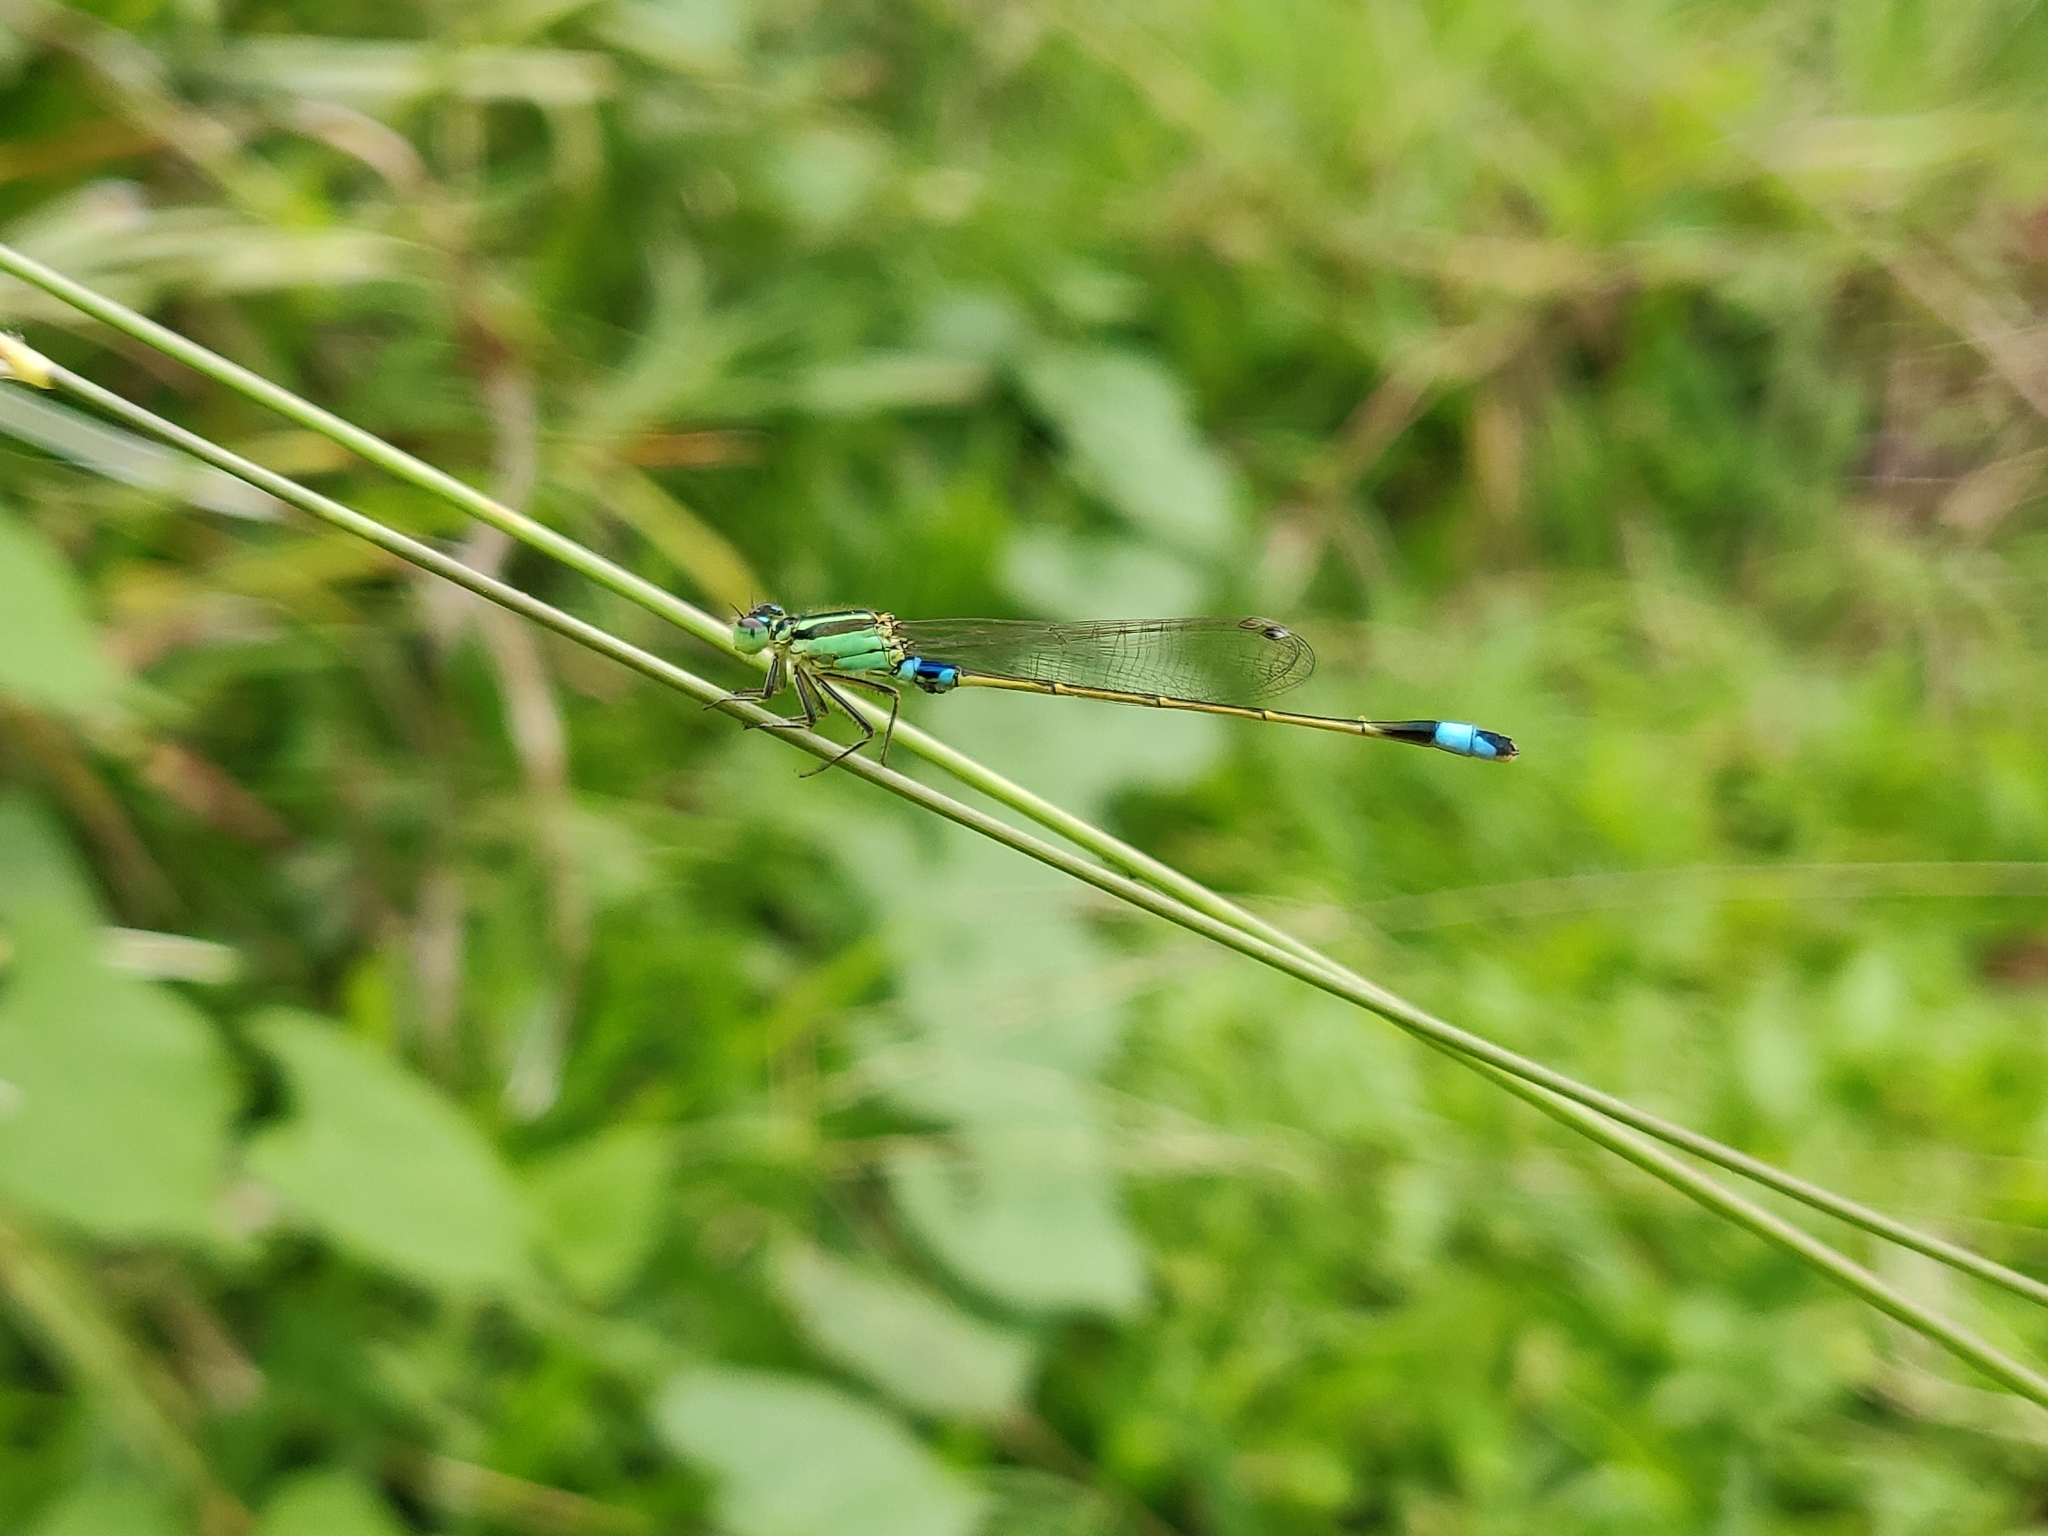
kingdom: Animalia
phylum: Arthropoda
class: Insecta
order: Odonata
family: Coenagrionidae
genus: Ischnura
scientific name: Ischnura senegalensis
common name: Tropical bluetail
